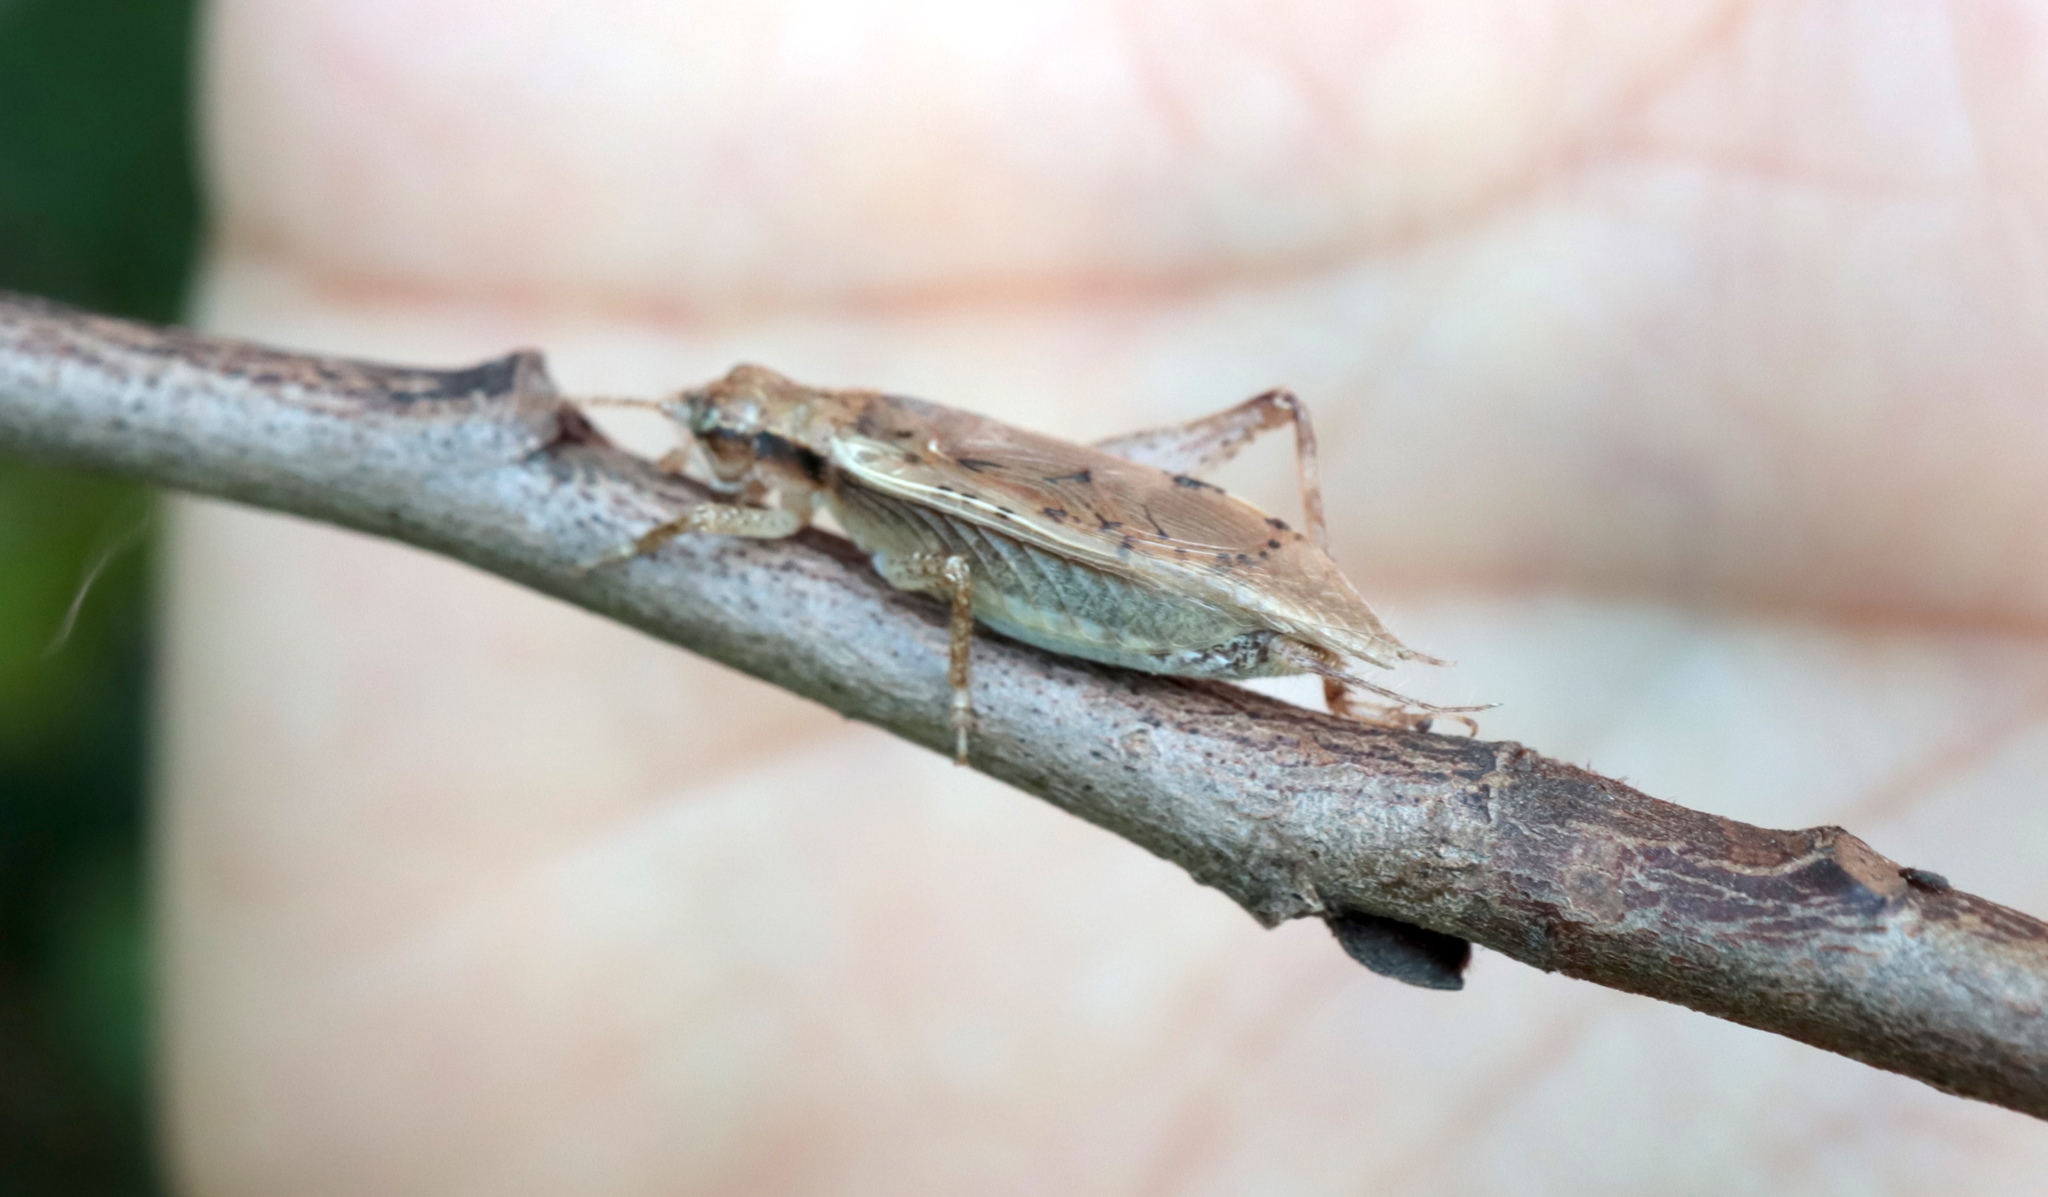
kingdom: Animalia
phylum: Arthropoda
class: Insecta
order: Orthoptera
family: Gryllidae
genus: Hapithus
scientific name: Hapithus saltator
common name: Jumping bush cricket
